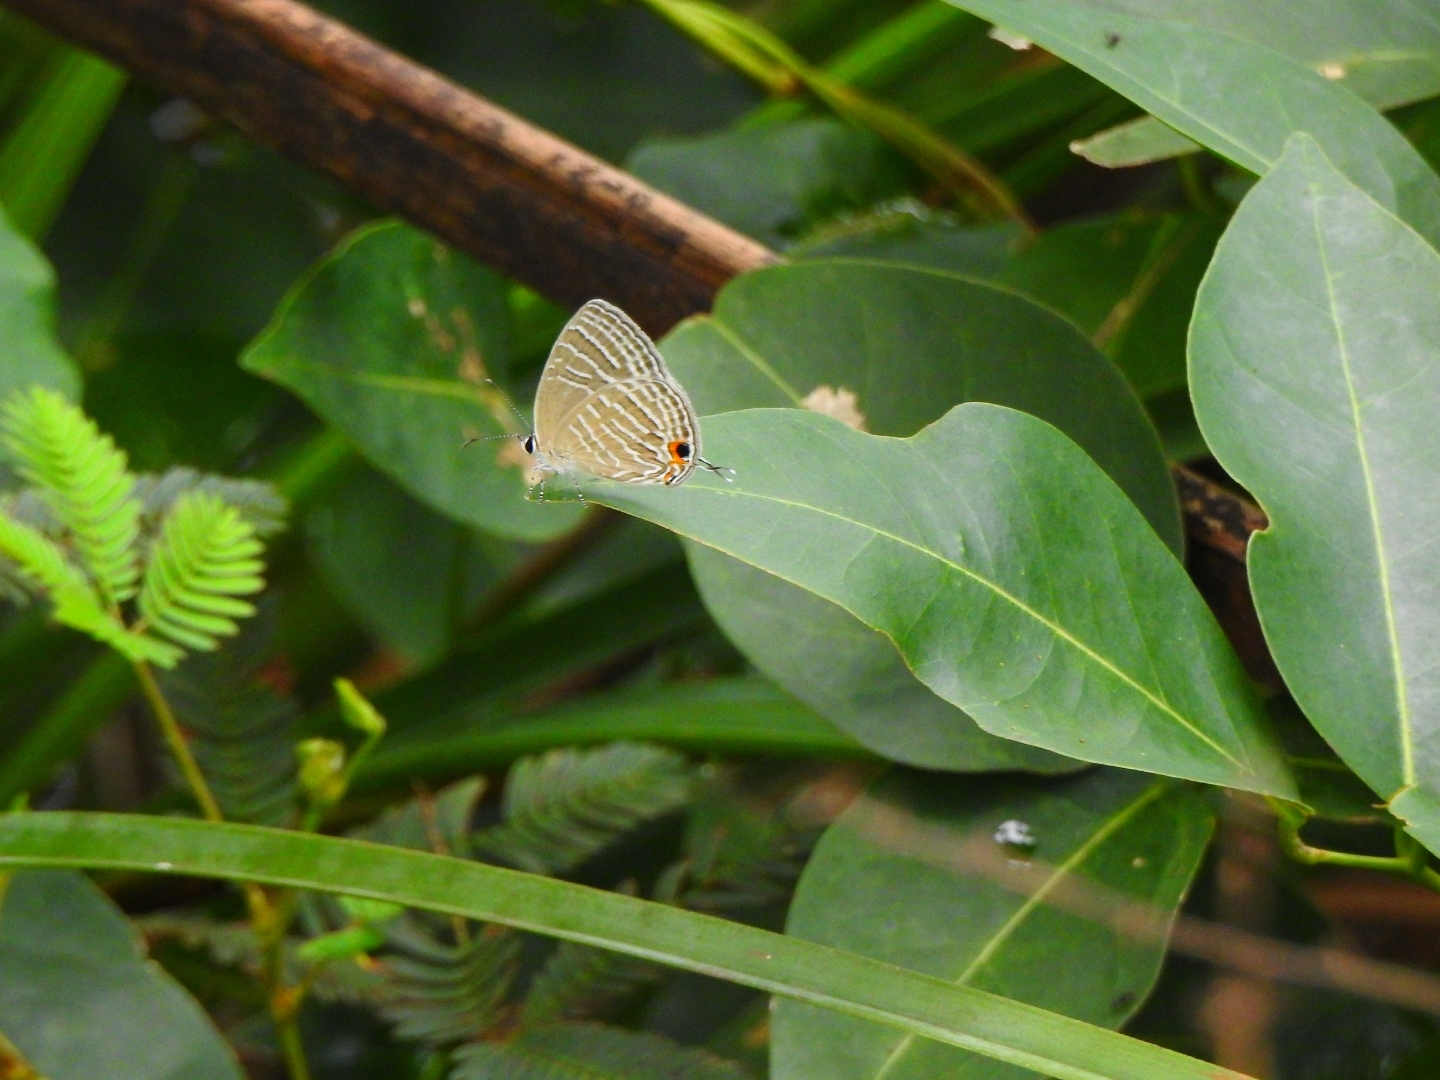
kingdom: Animalia
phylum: Arthropoda
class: Insecta
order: Lepidoptera
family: Lycaenidae
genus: Jamides
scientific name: Jamides celeno
